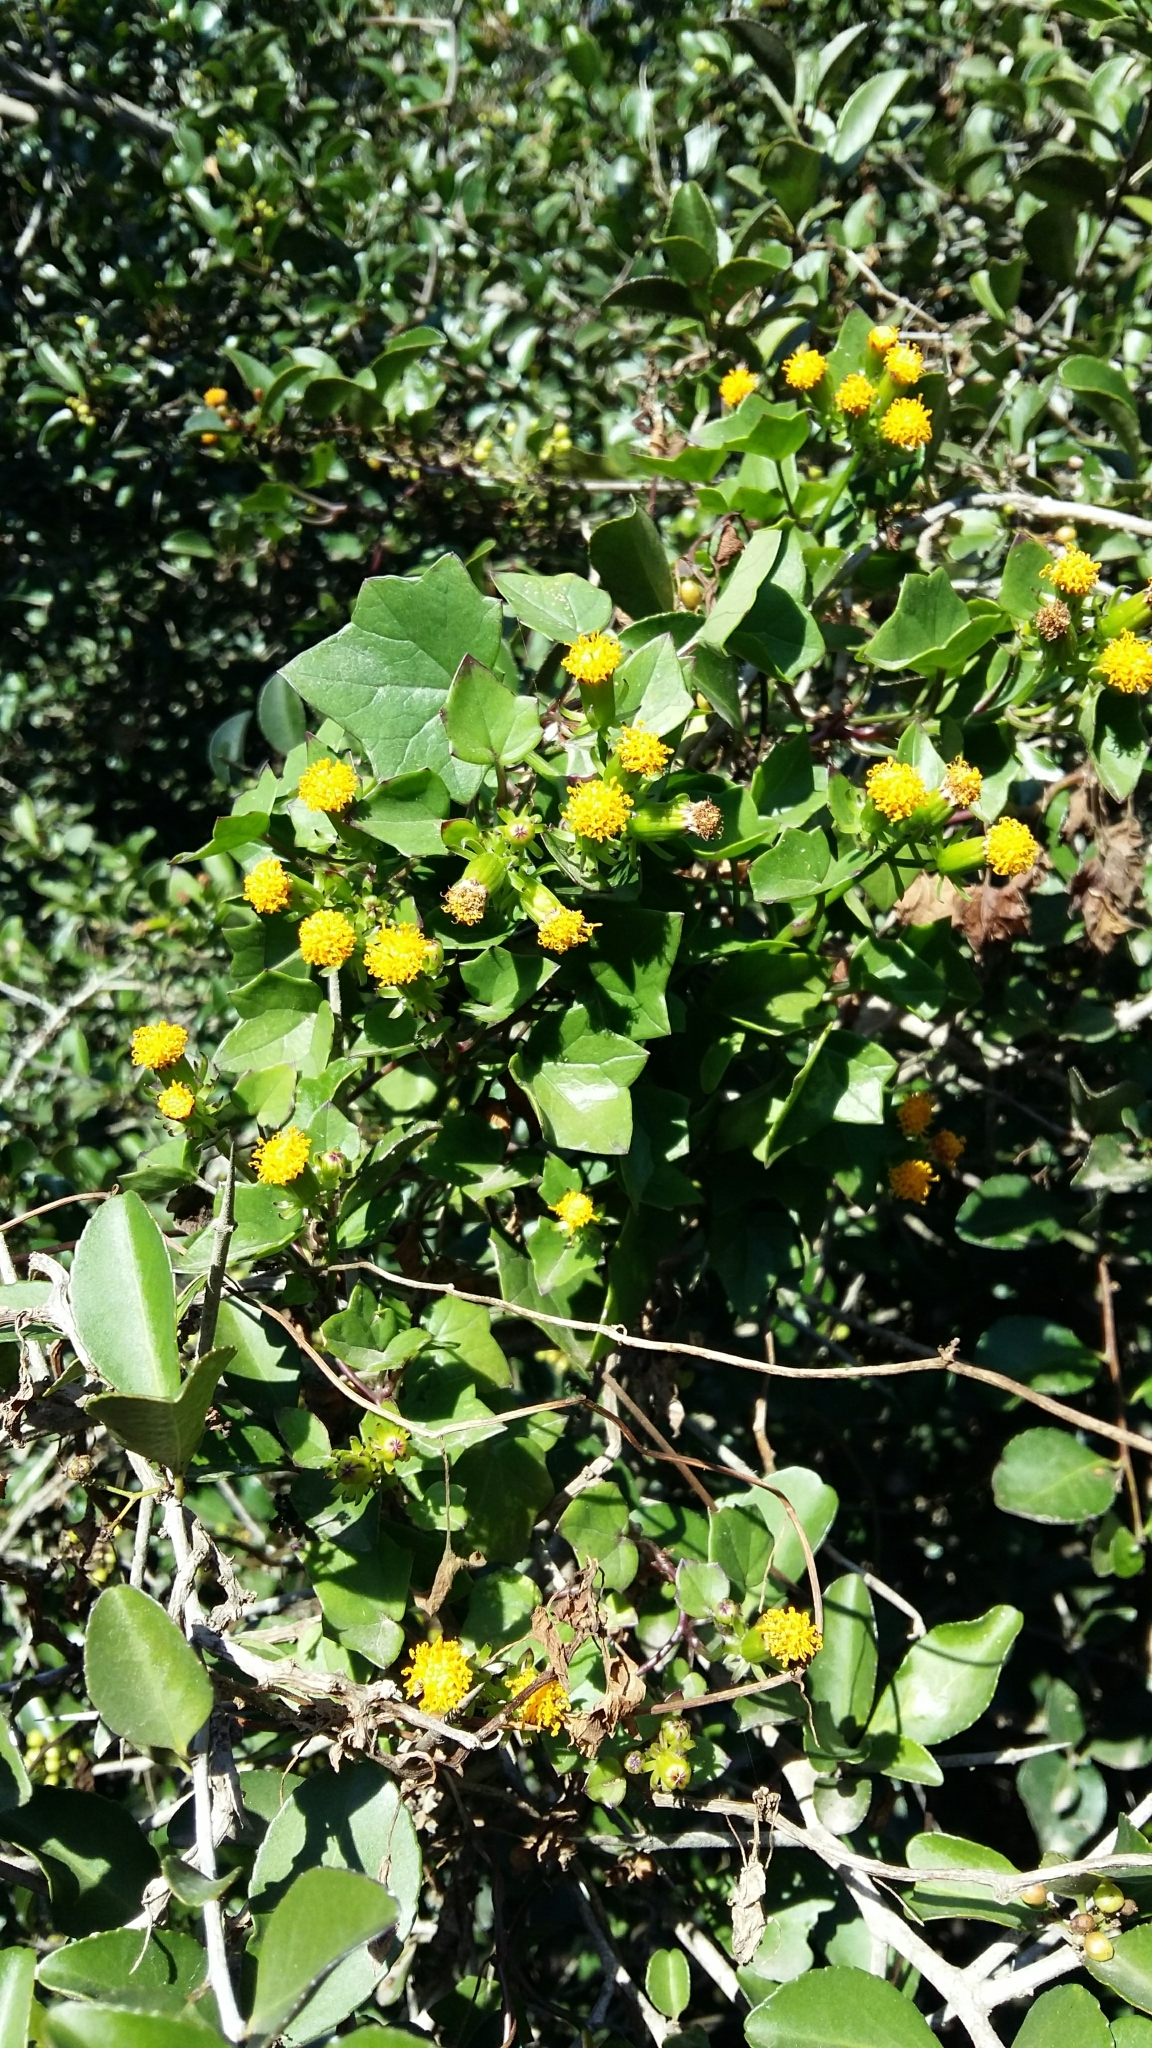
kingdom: Plantae
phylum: Tracheophyta
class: Magnoliopsida
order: Asterales
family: Asteraceae
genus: Delairea
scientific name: Delairea odorata
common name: Cape-ivy
